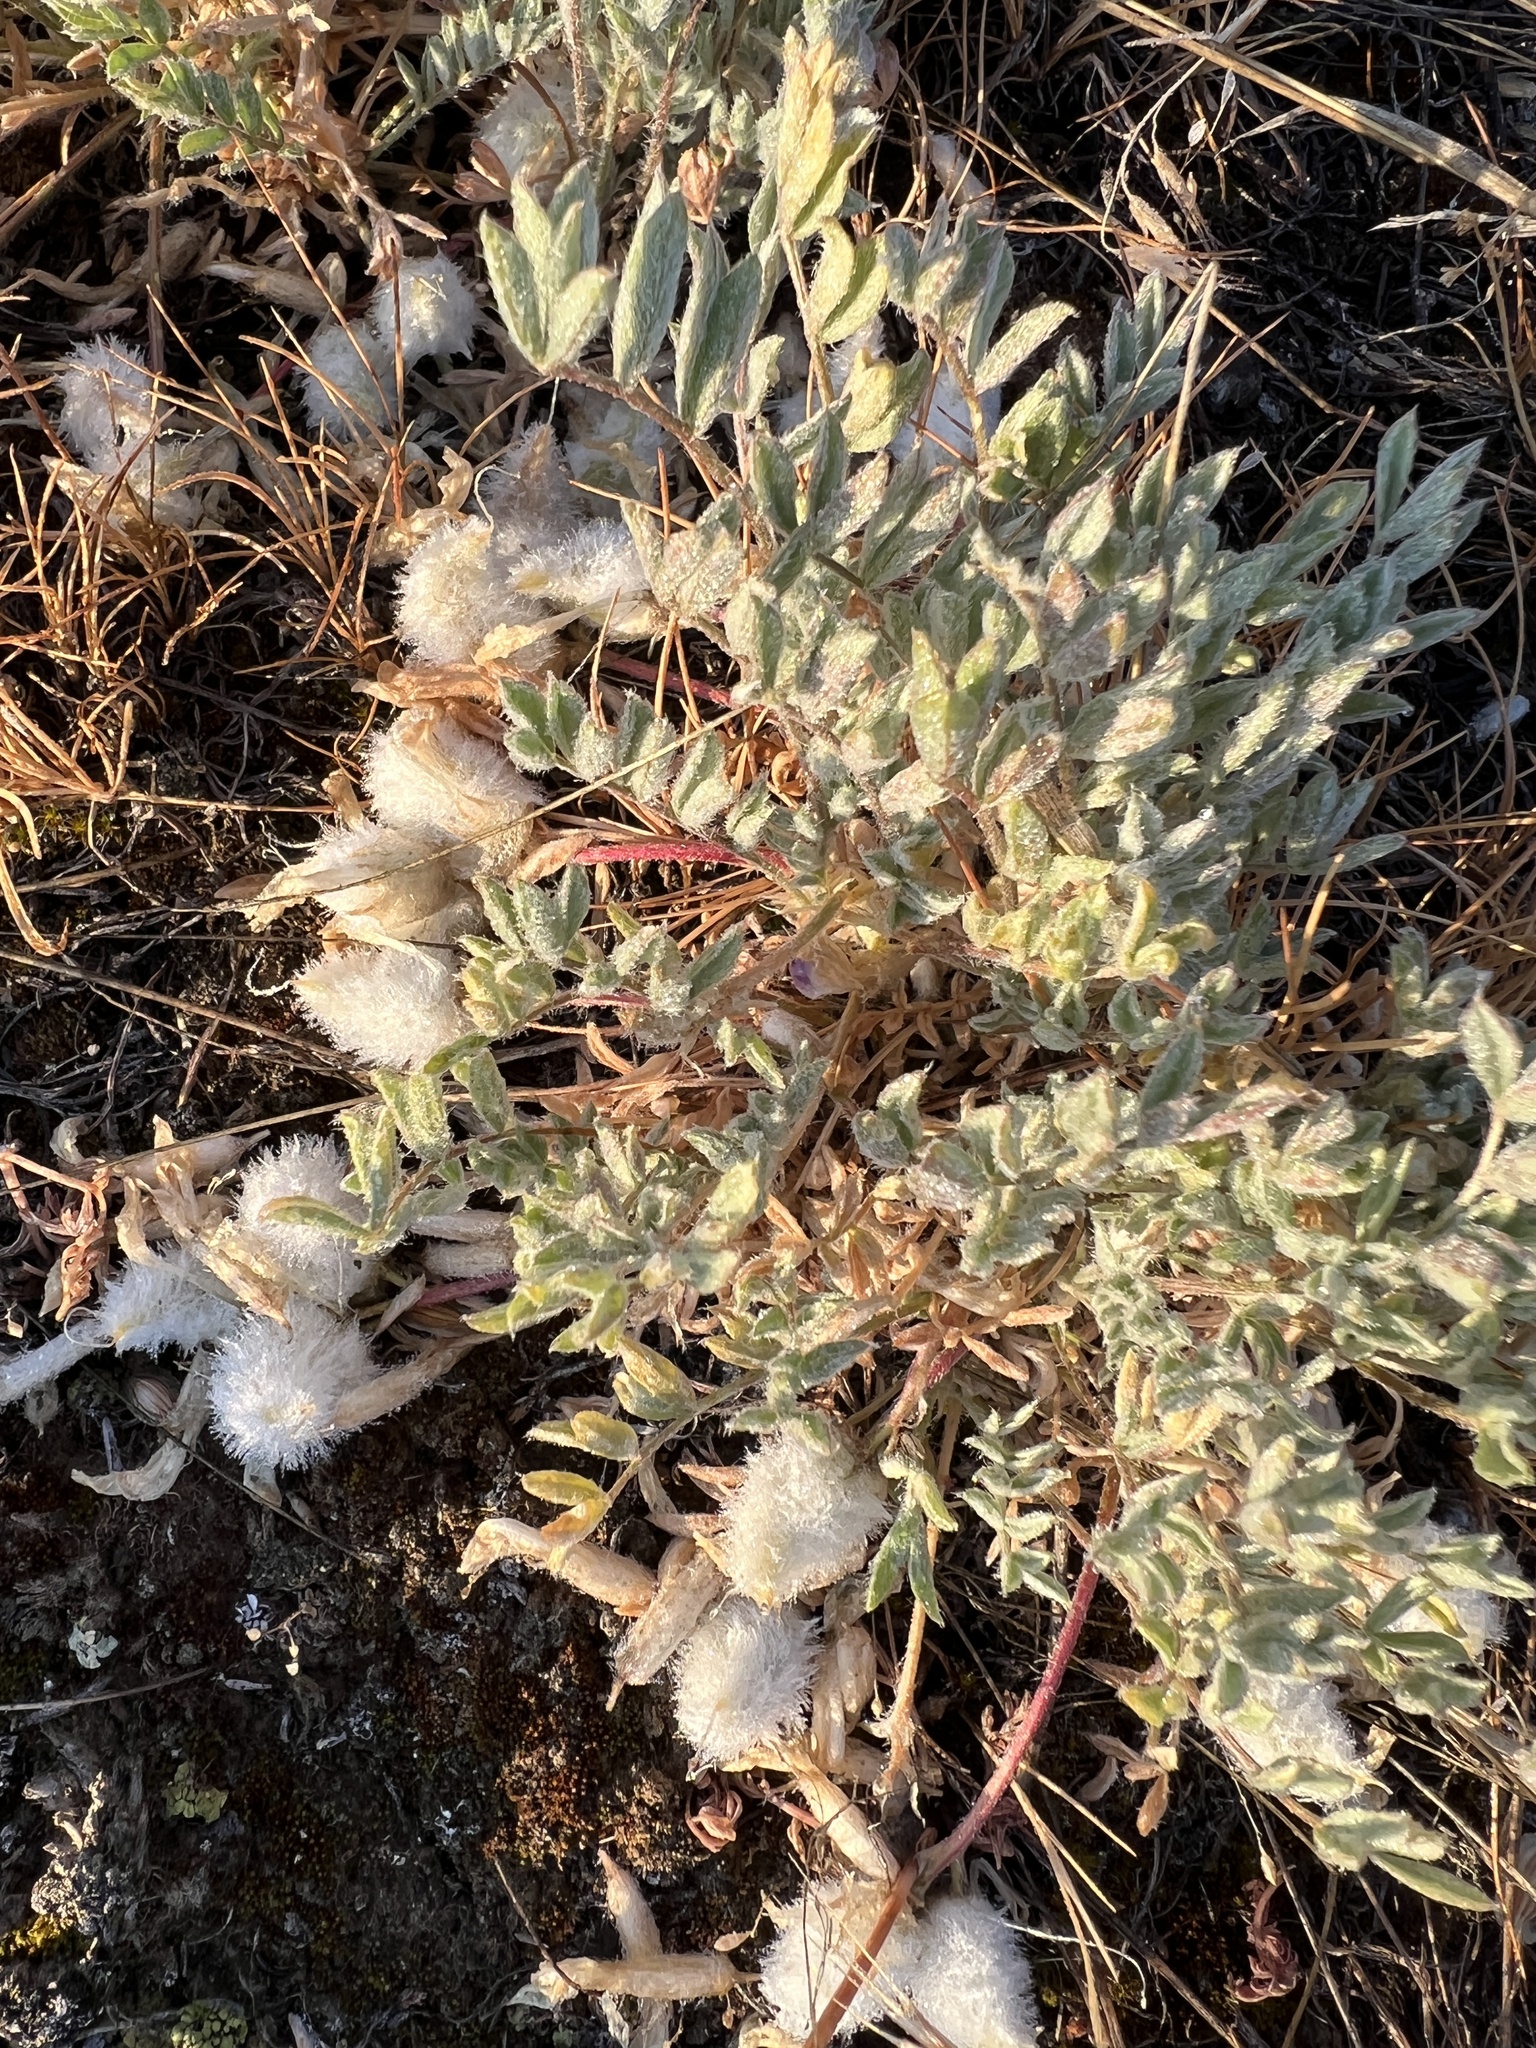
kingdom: Plantae
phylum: Tracheophyta
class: Magnoliopsida
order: Fabales
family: Fabaceae
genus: Astragalus
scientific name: Astragalus purshii
